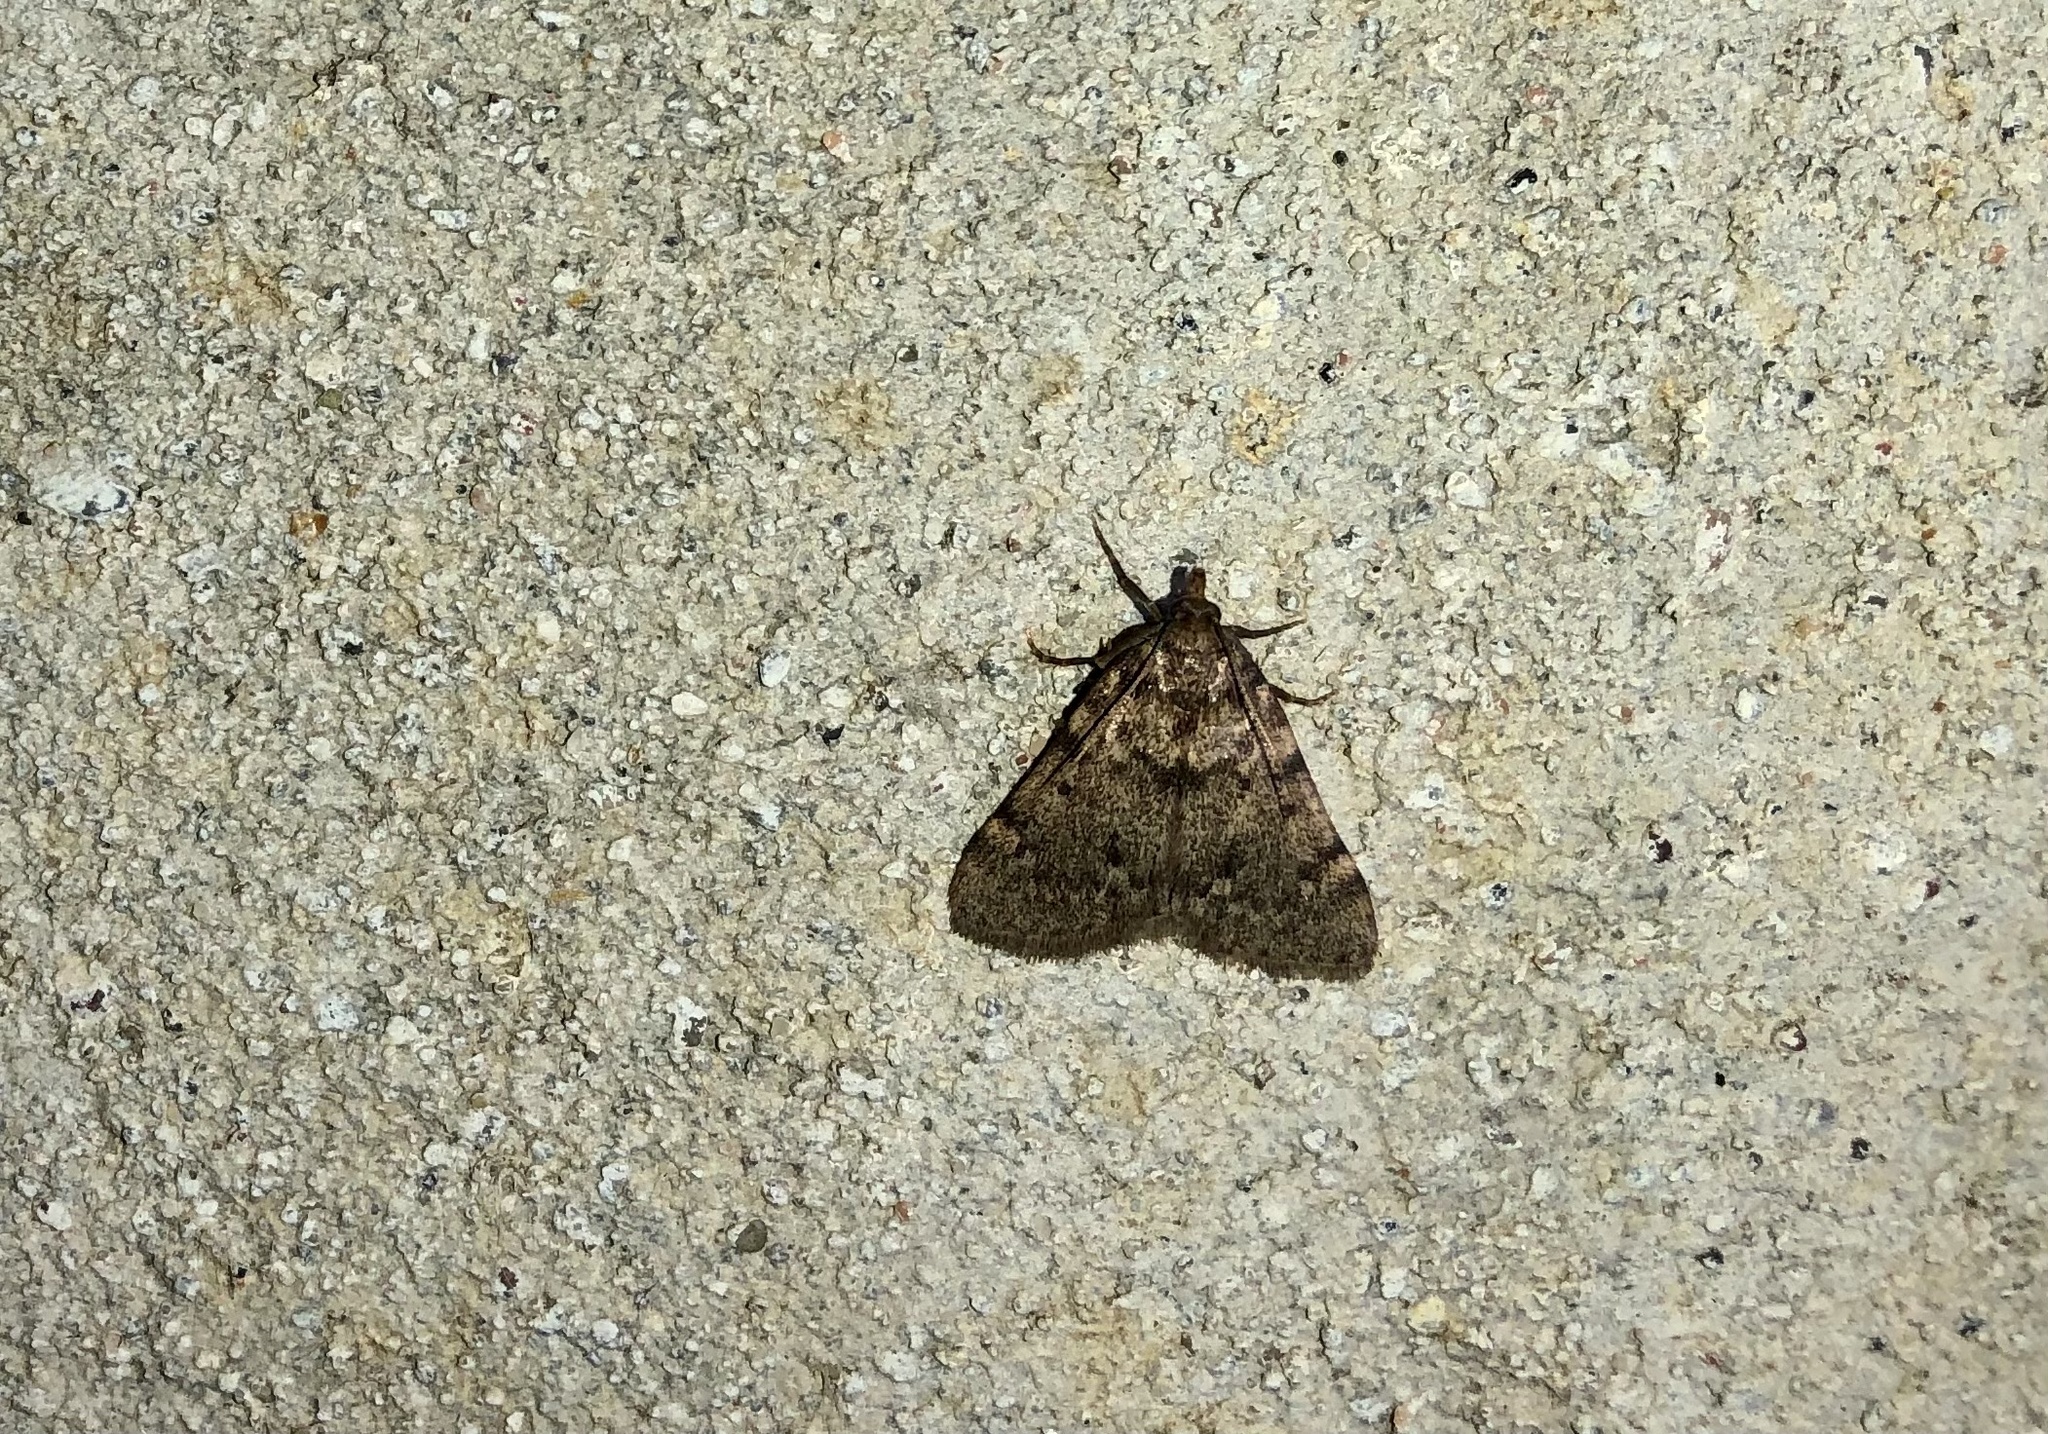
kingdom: Animalia
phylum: Arthropoda
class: Insecta
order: Lepidoptera
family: Pyralidae
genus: Aglossa
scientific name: Aglossa pinguinalis
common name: Large tabby
